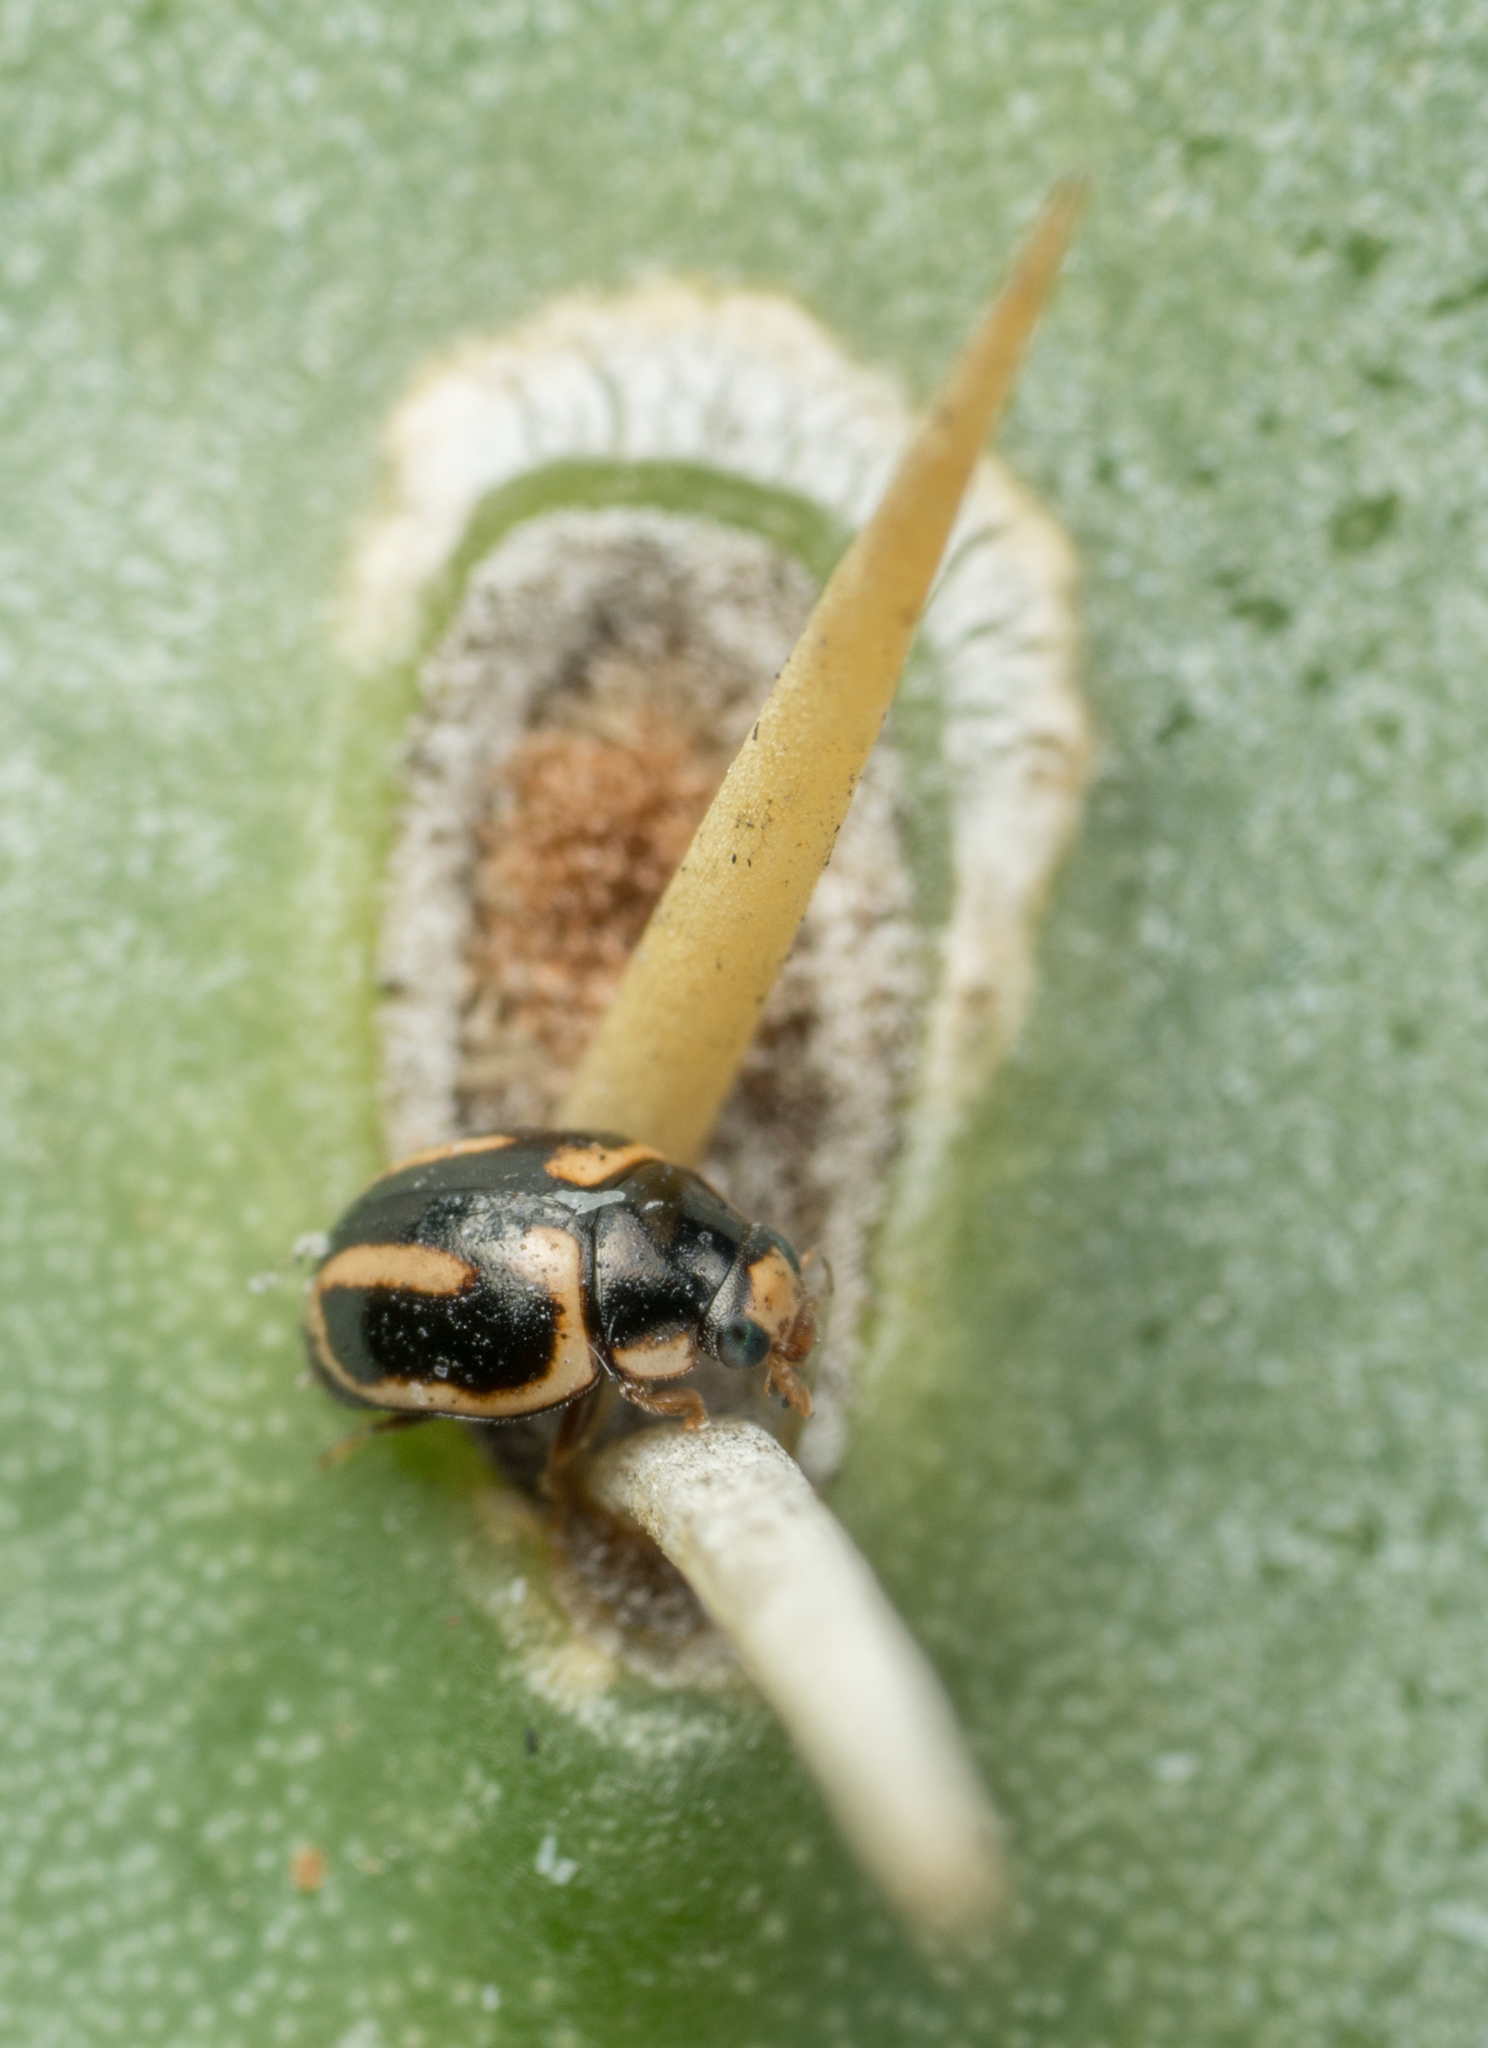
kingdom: Animalia
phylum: Arthropoda
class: Insecta
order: Coleoptera
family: Coccinellidae
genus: Hyperaspis
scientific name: Hyperaspis trifurcata
